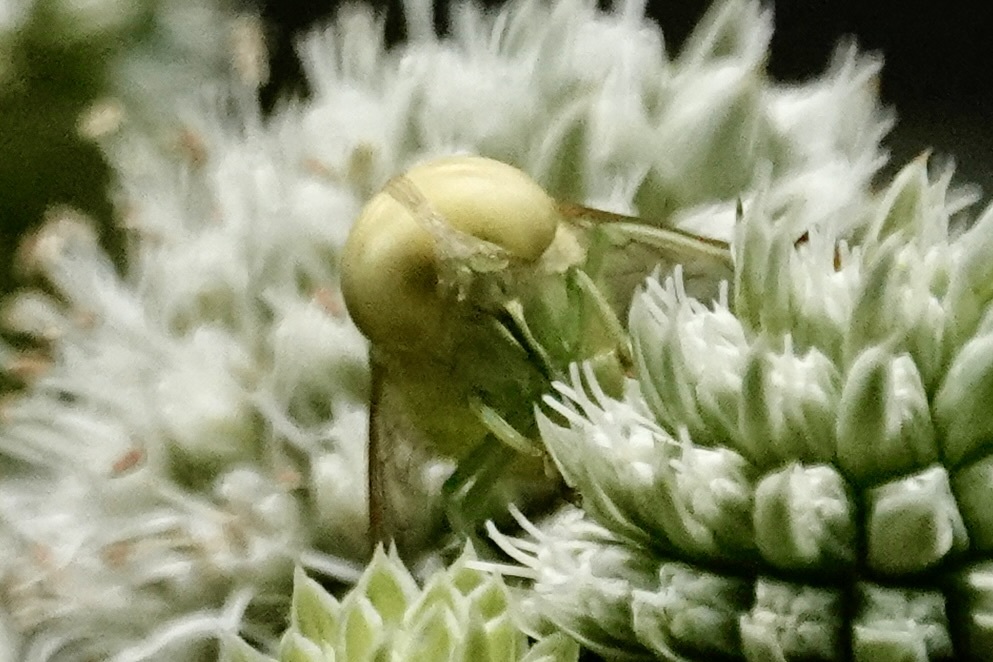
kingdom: Animalia
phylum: Arthropoda
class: Insecta
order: Diptera
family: Tabanidae
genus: Chlorotabanus
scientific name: Chlorotabanus crepuscularis
